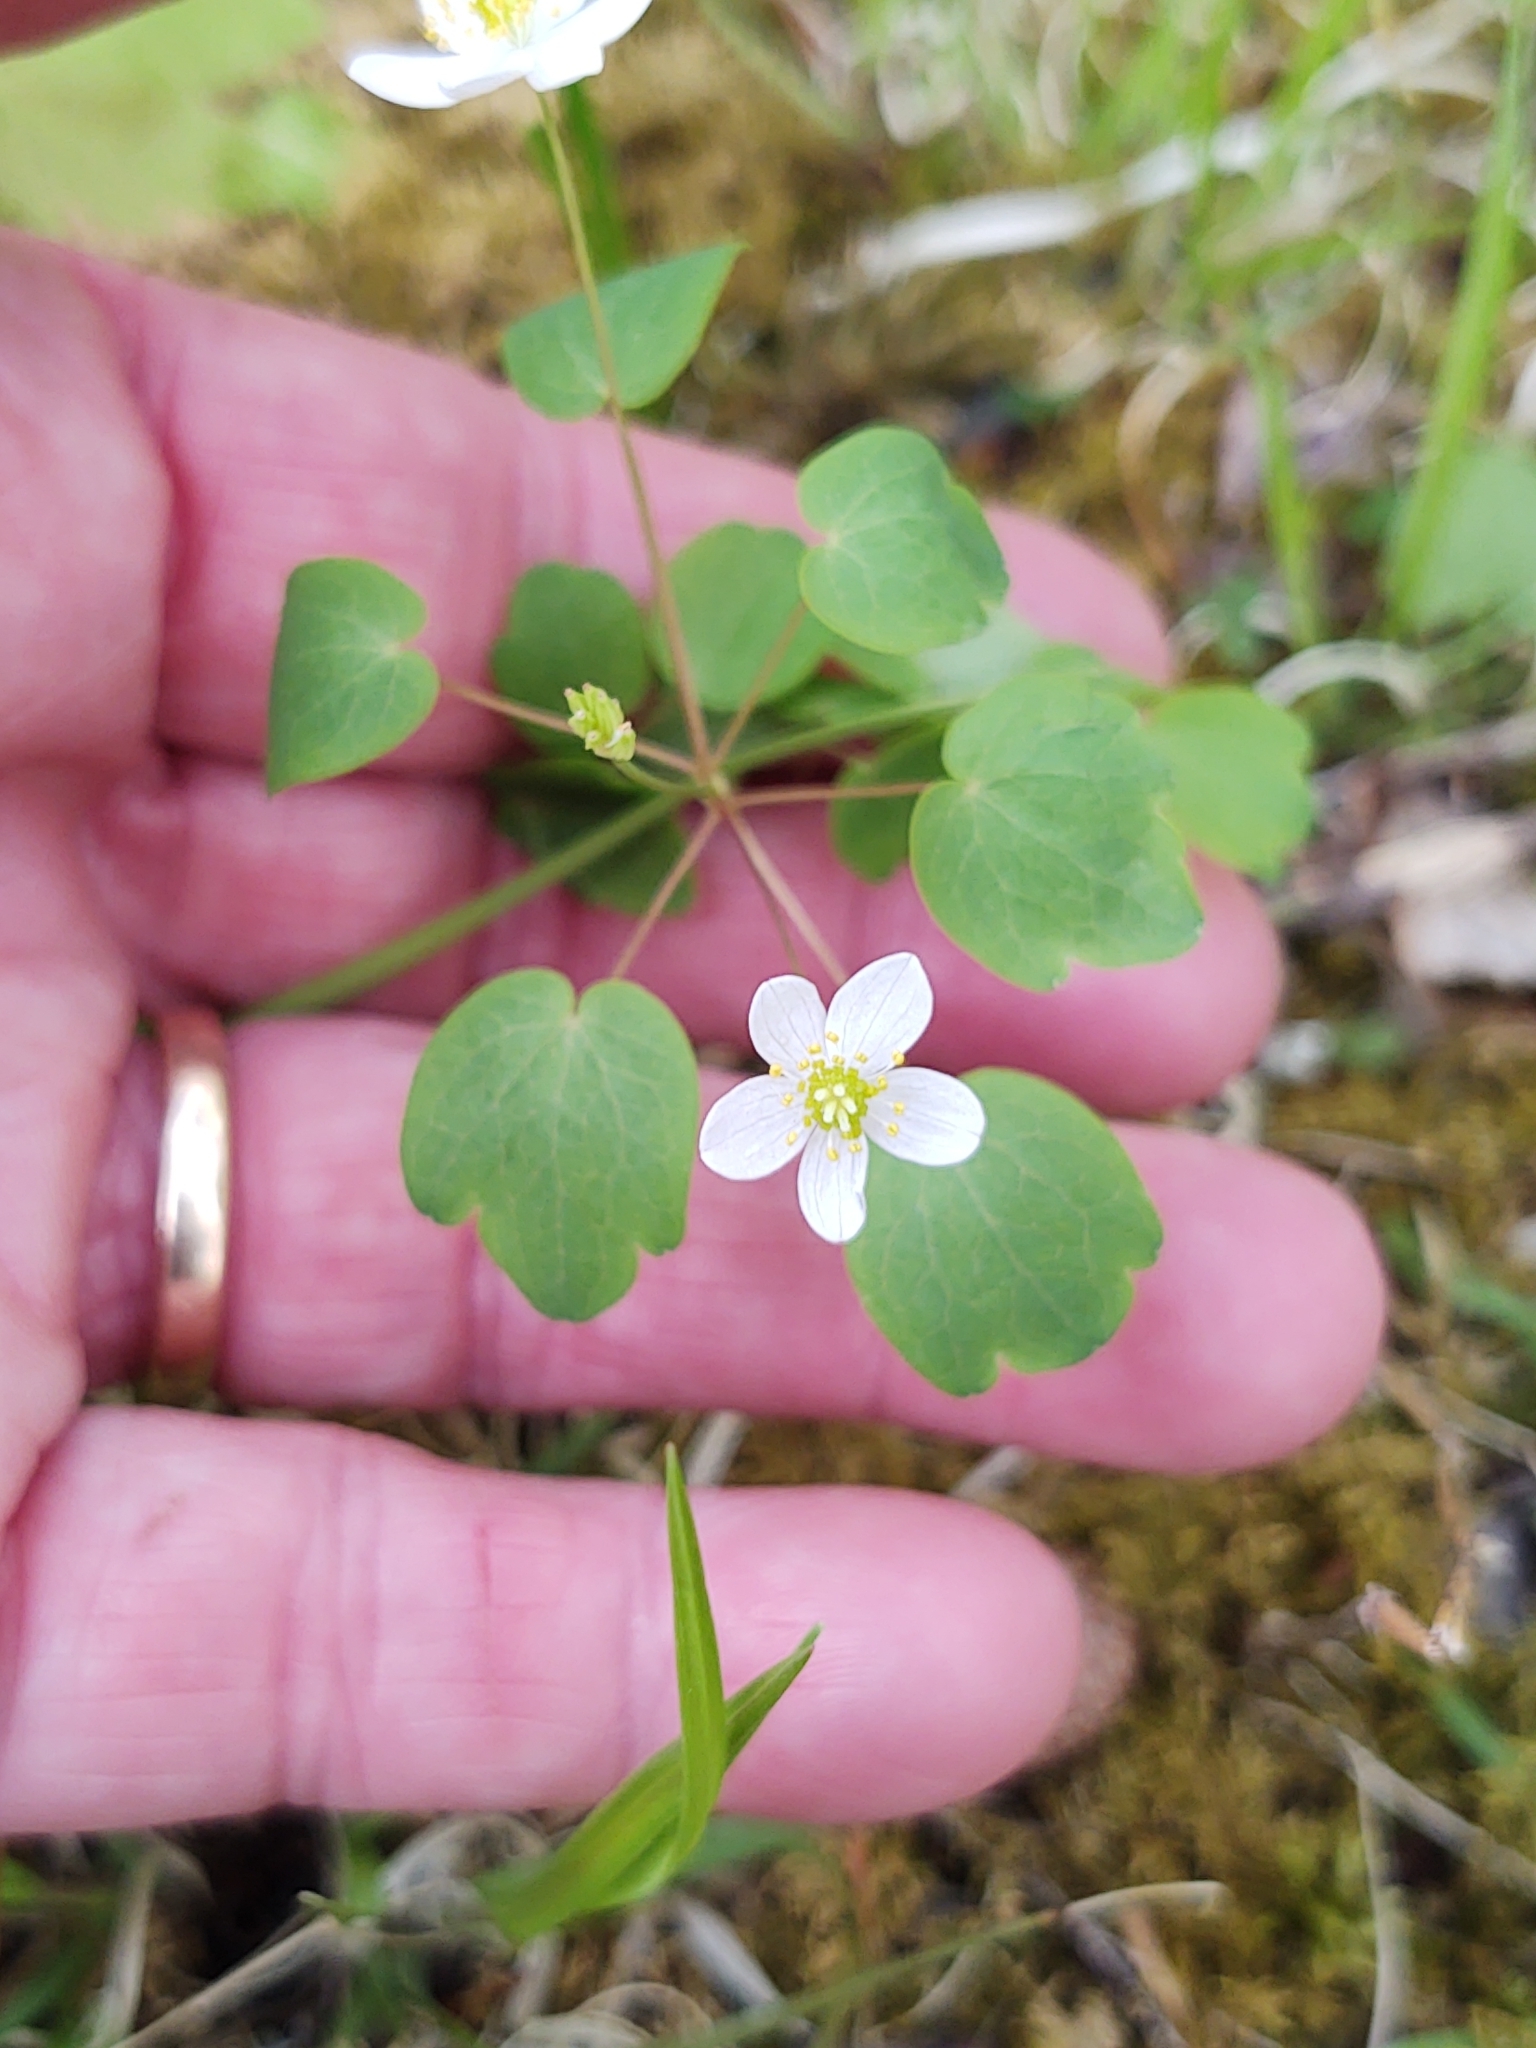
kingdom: Plantae
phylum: Tracheophyta
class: Magnoliopsida
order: Ranunculales
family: Ranunculaceae
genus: Thalictrum
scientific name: Thalictrum thalictroides
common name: Rue-anemone
